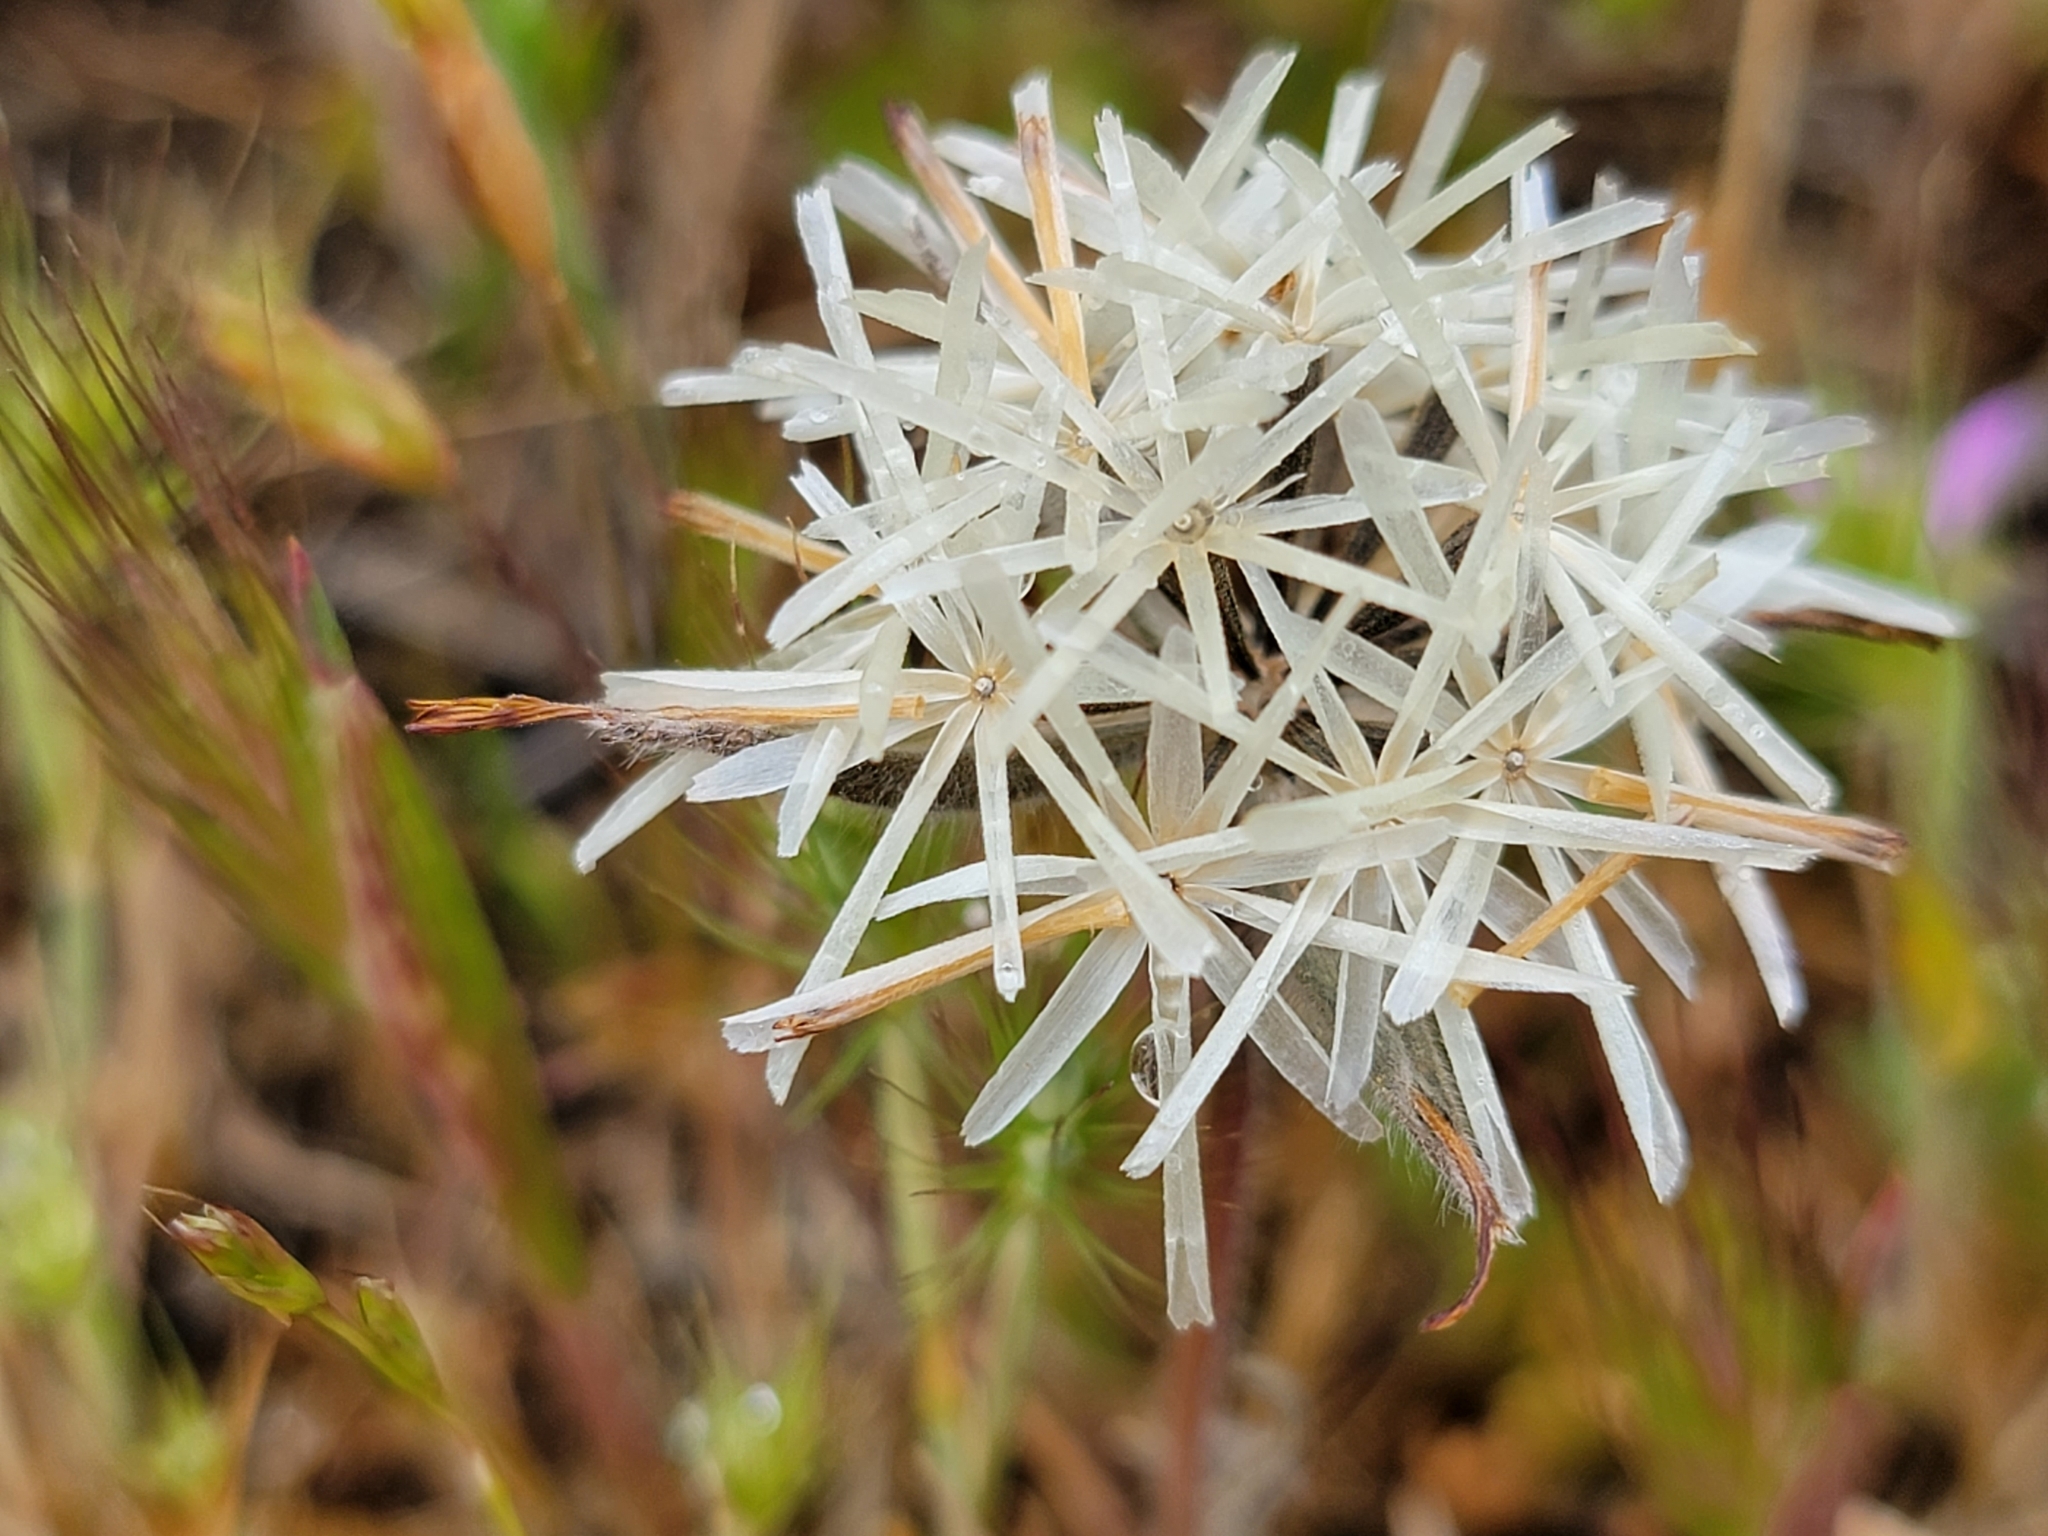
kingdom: Plantae
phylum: Tracheophyta
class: Magnoliopsida
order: Asterales
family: Asteraceae
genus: Achyrachaena
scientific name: Achyrachaena mollis
